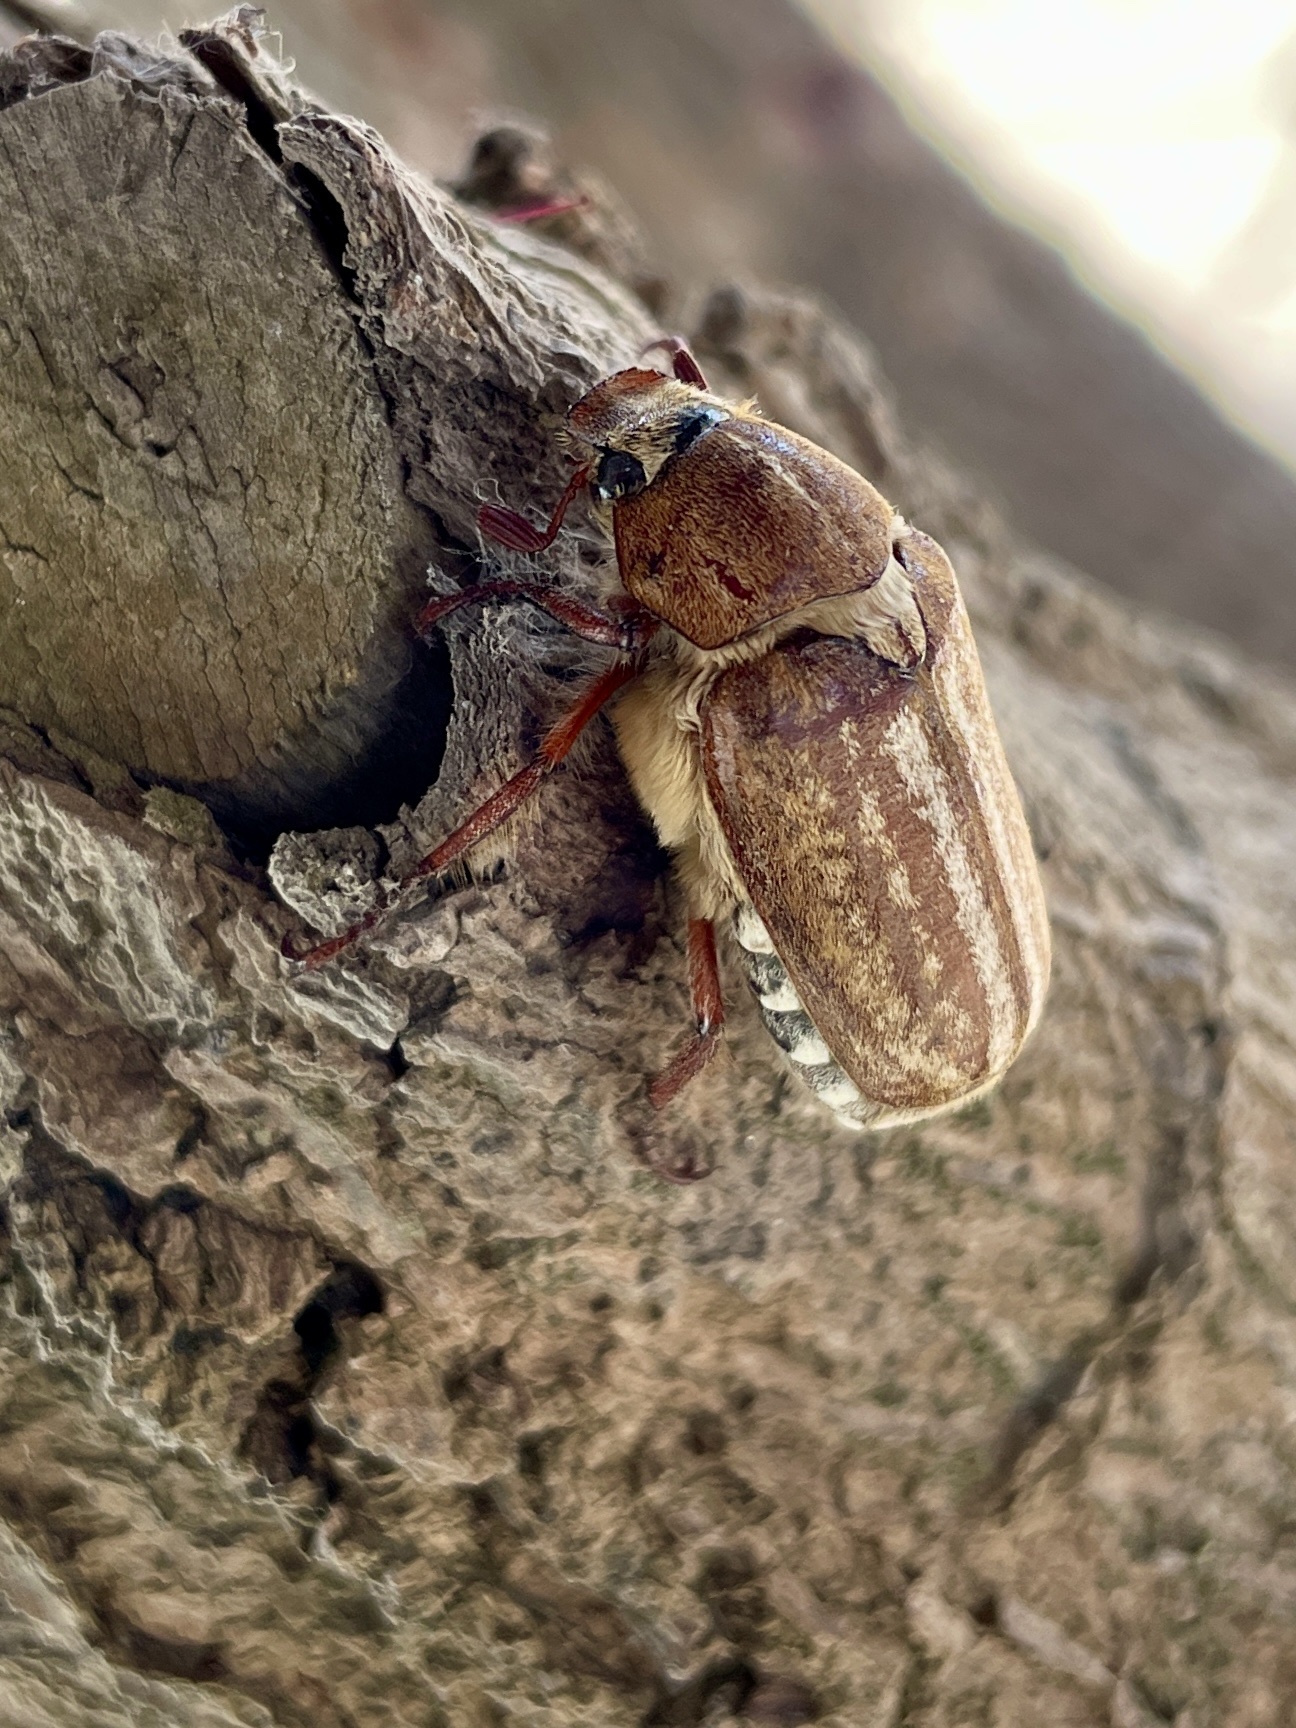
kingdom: Animalia
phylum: Arthropoda
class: Insecta
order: Coleoptera
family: Scarabaeidae
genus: Anoxia
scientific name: Anoxia australis
